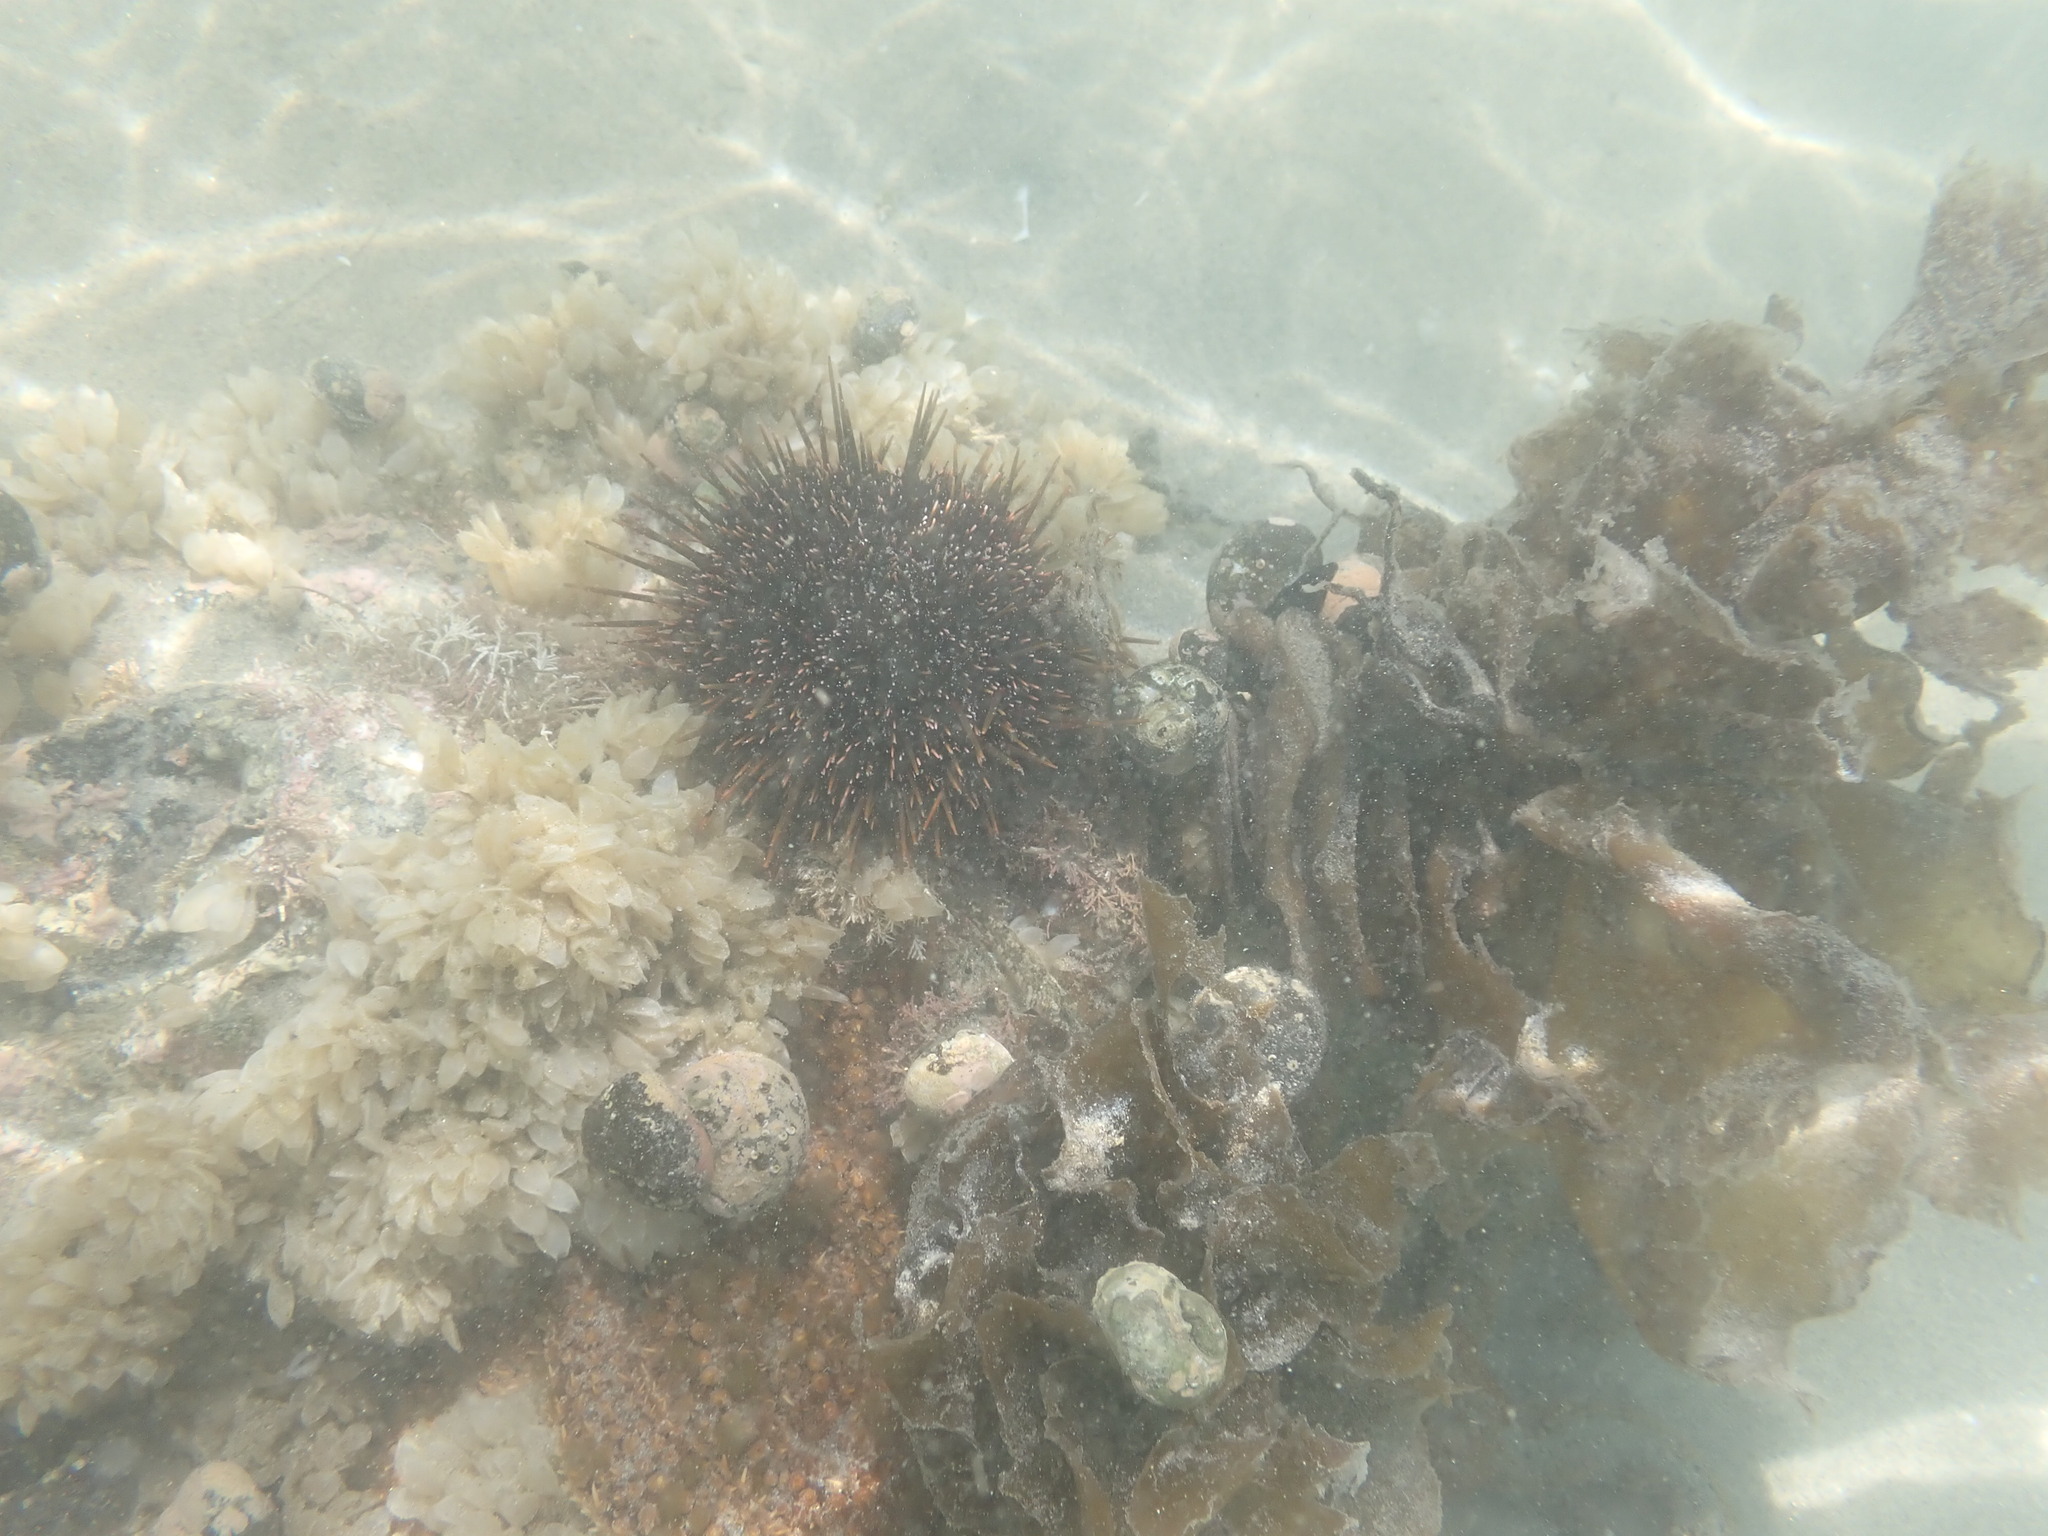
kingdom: Animalia
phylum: Echinodermata
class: Echinoidea
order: Camarodonta
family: Echinometridae
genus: Evechinus
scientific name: Evechinus chloroticus
